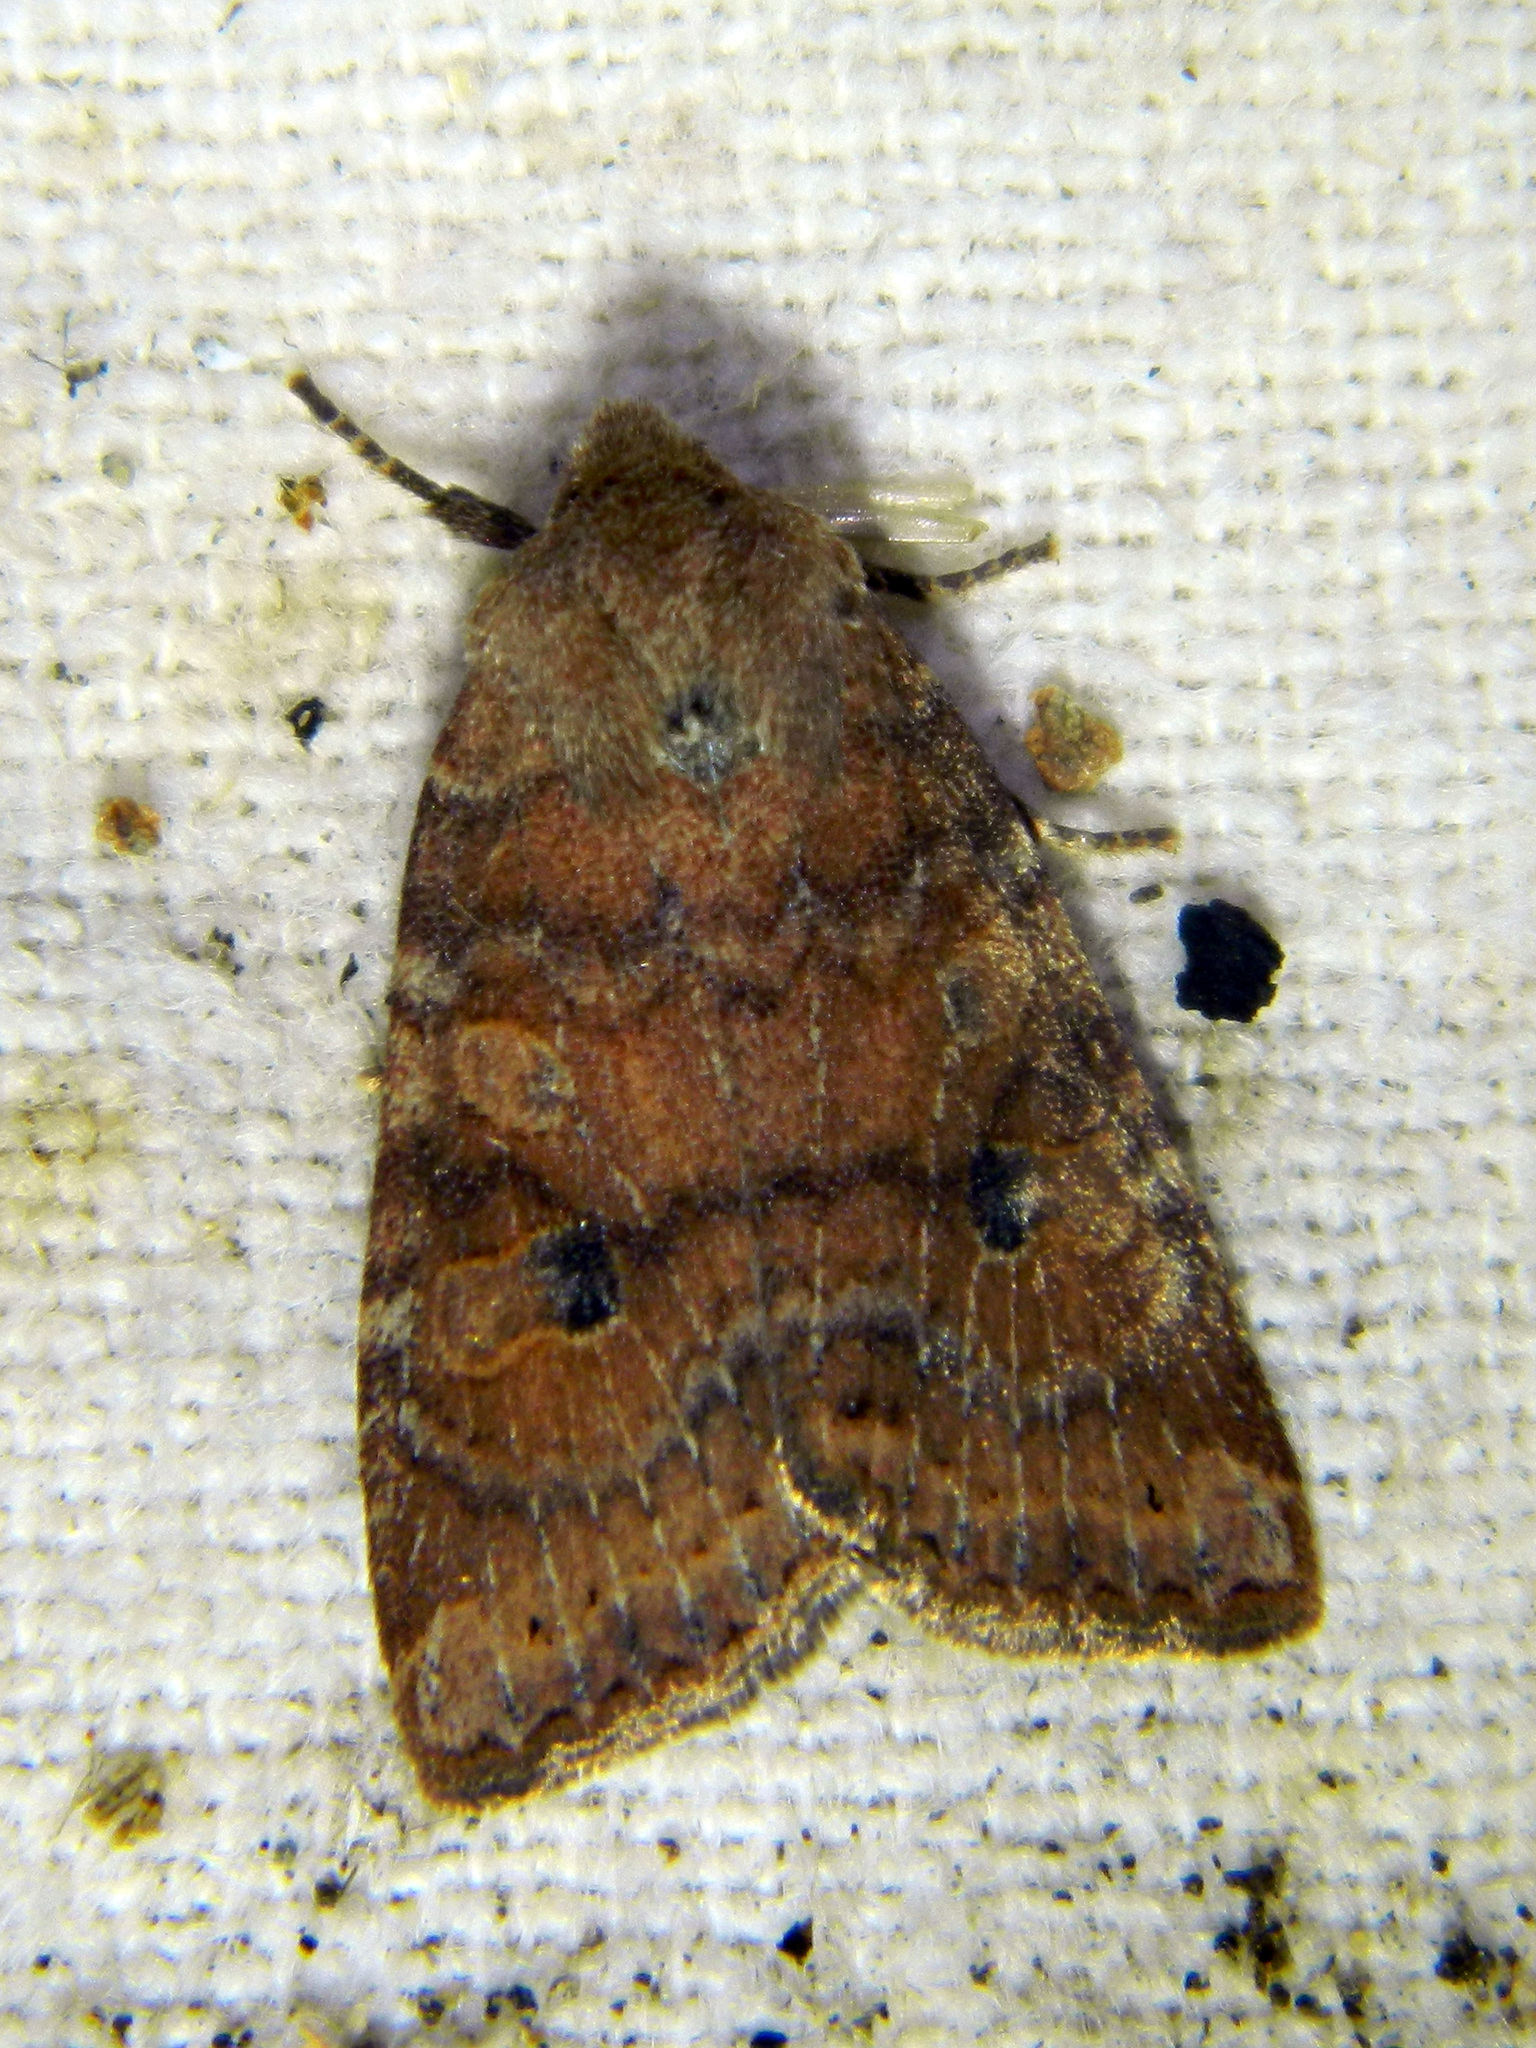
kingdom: Animalia
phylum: Arthropoda
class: Insecta
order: Lepidoptera
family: Noctuidae
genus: Anathix
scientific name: Anathix puta
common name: Puta sallow
